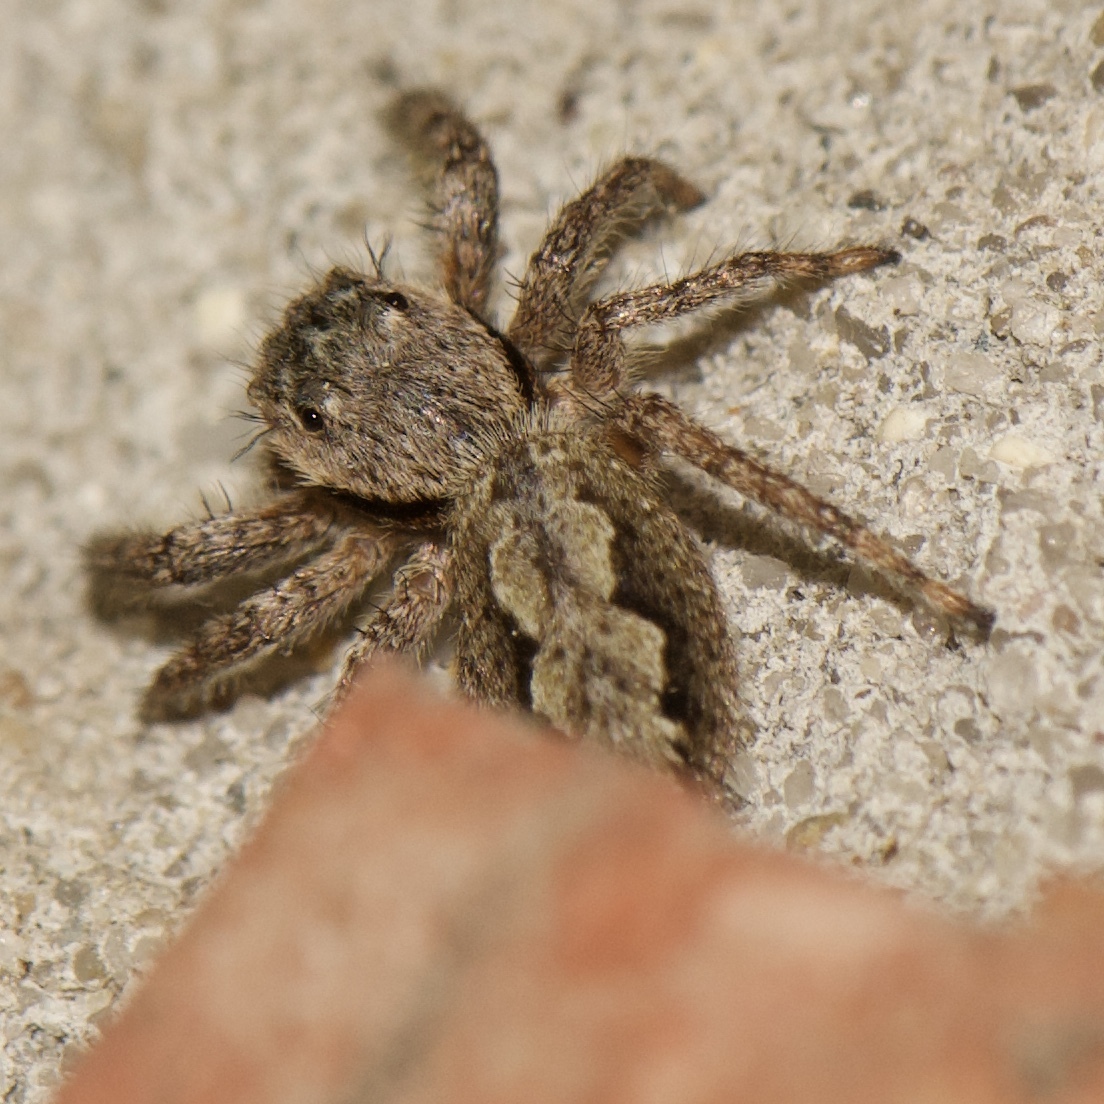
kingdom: Animalia
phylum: Arthropoda
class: Arachnida
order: Araneae
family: Salticidae
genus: Platycryptus
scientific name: Platycryptus undatus
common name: Tan jumping spider
